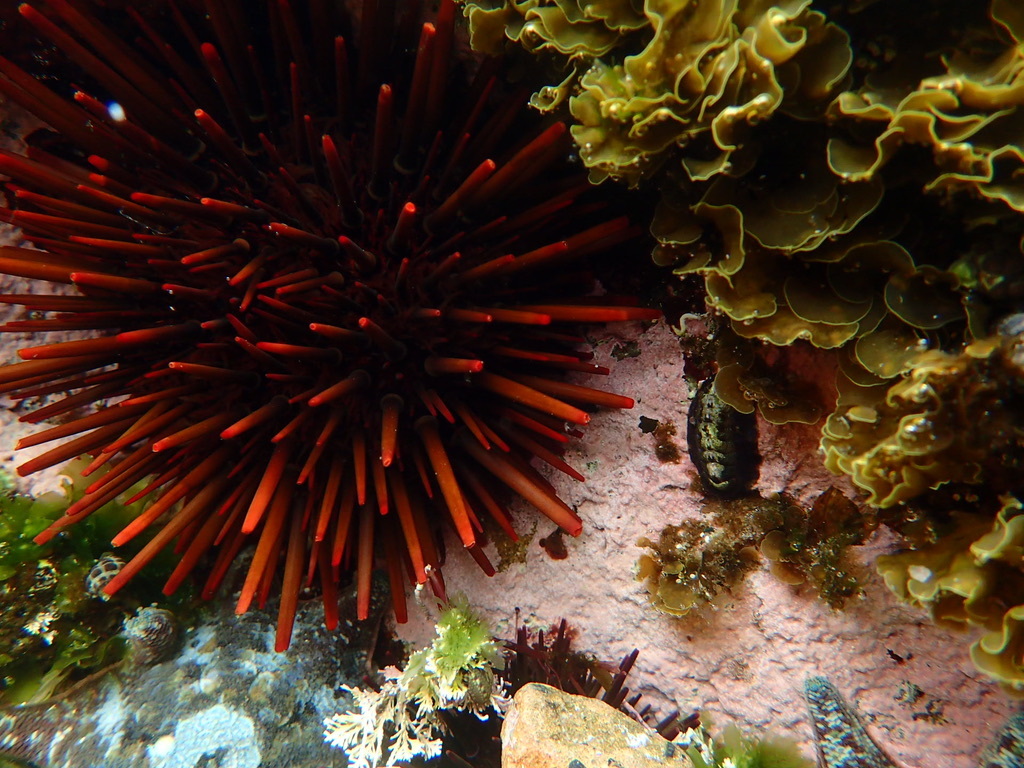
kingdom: Animalia
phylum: Echinodermata
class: Echinoidea
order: Camarodonta
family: Echinometridae
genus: Heliocidaris
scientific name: Heliocidaris tuberculata
